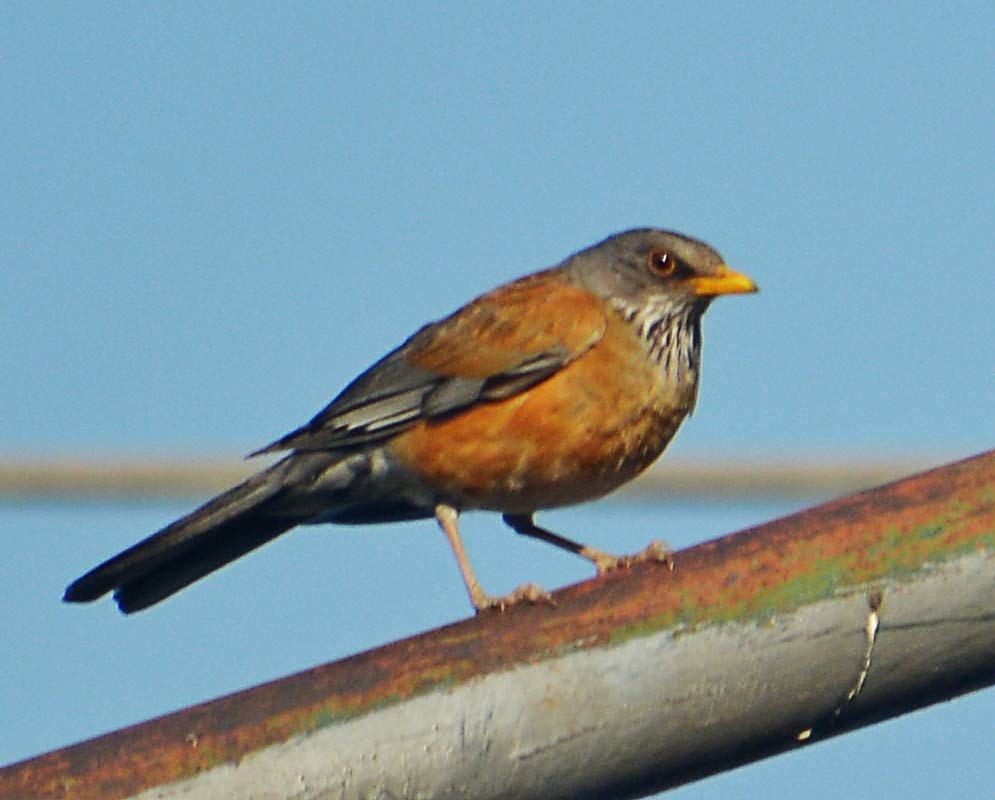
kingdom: Animalia
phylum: Chordata
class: Aves
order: Passeriformes
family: Turdidae
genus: Turdus
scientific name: Turdus rufopalliatus
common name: Rufous-backed robin
